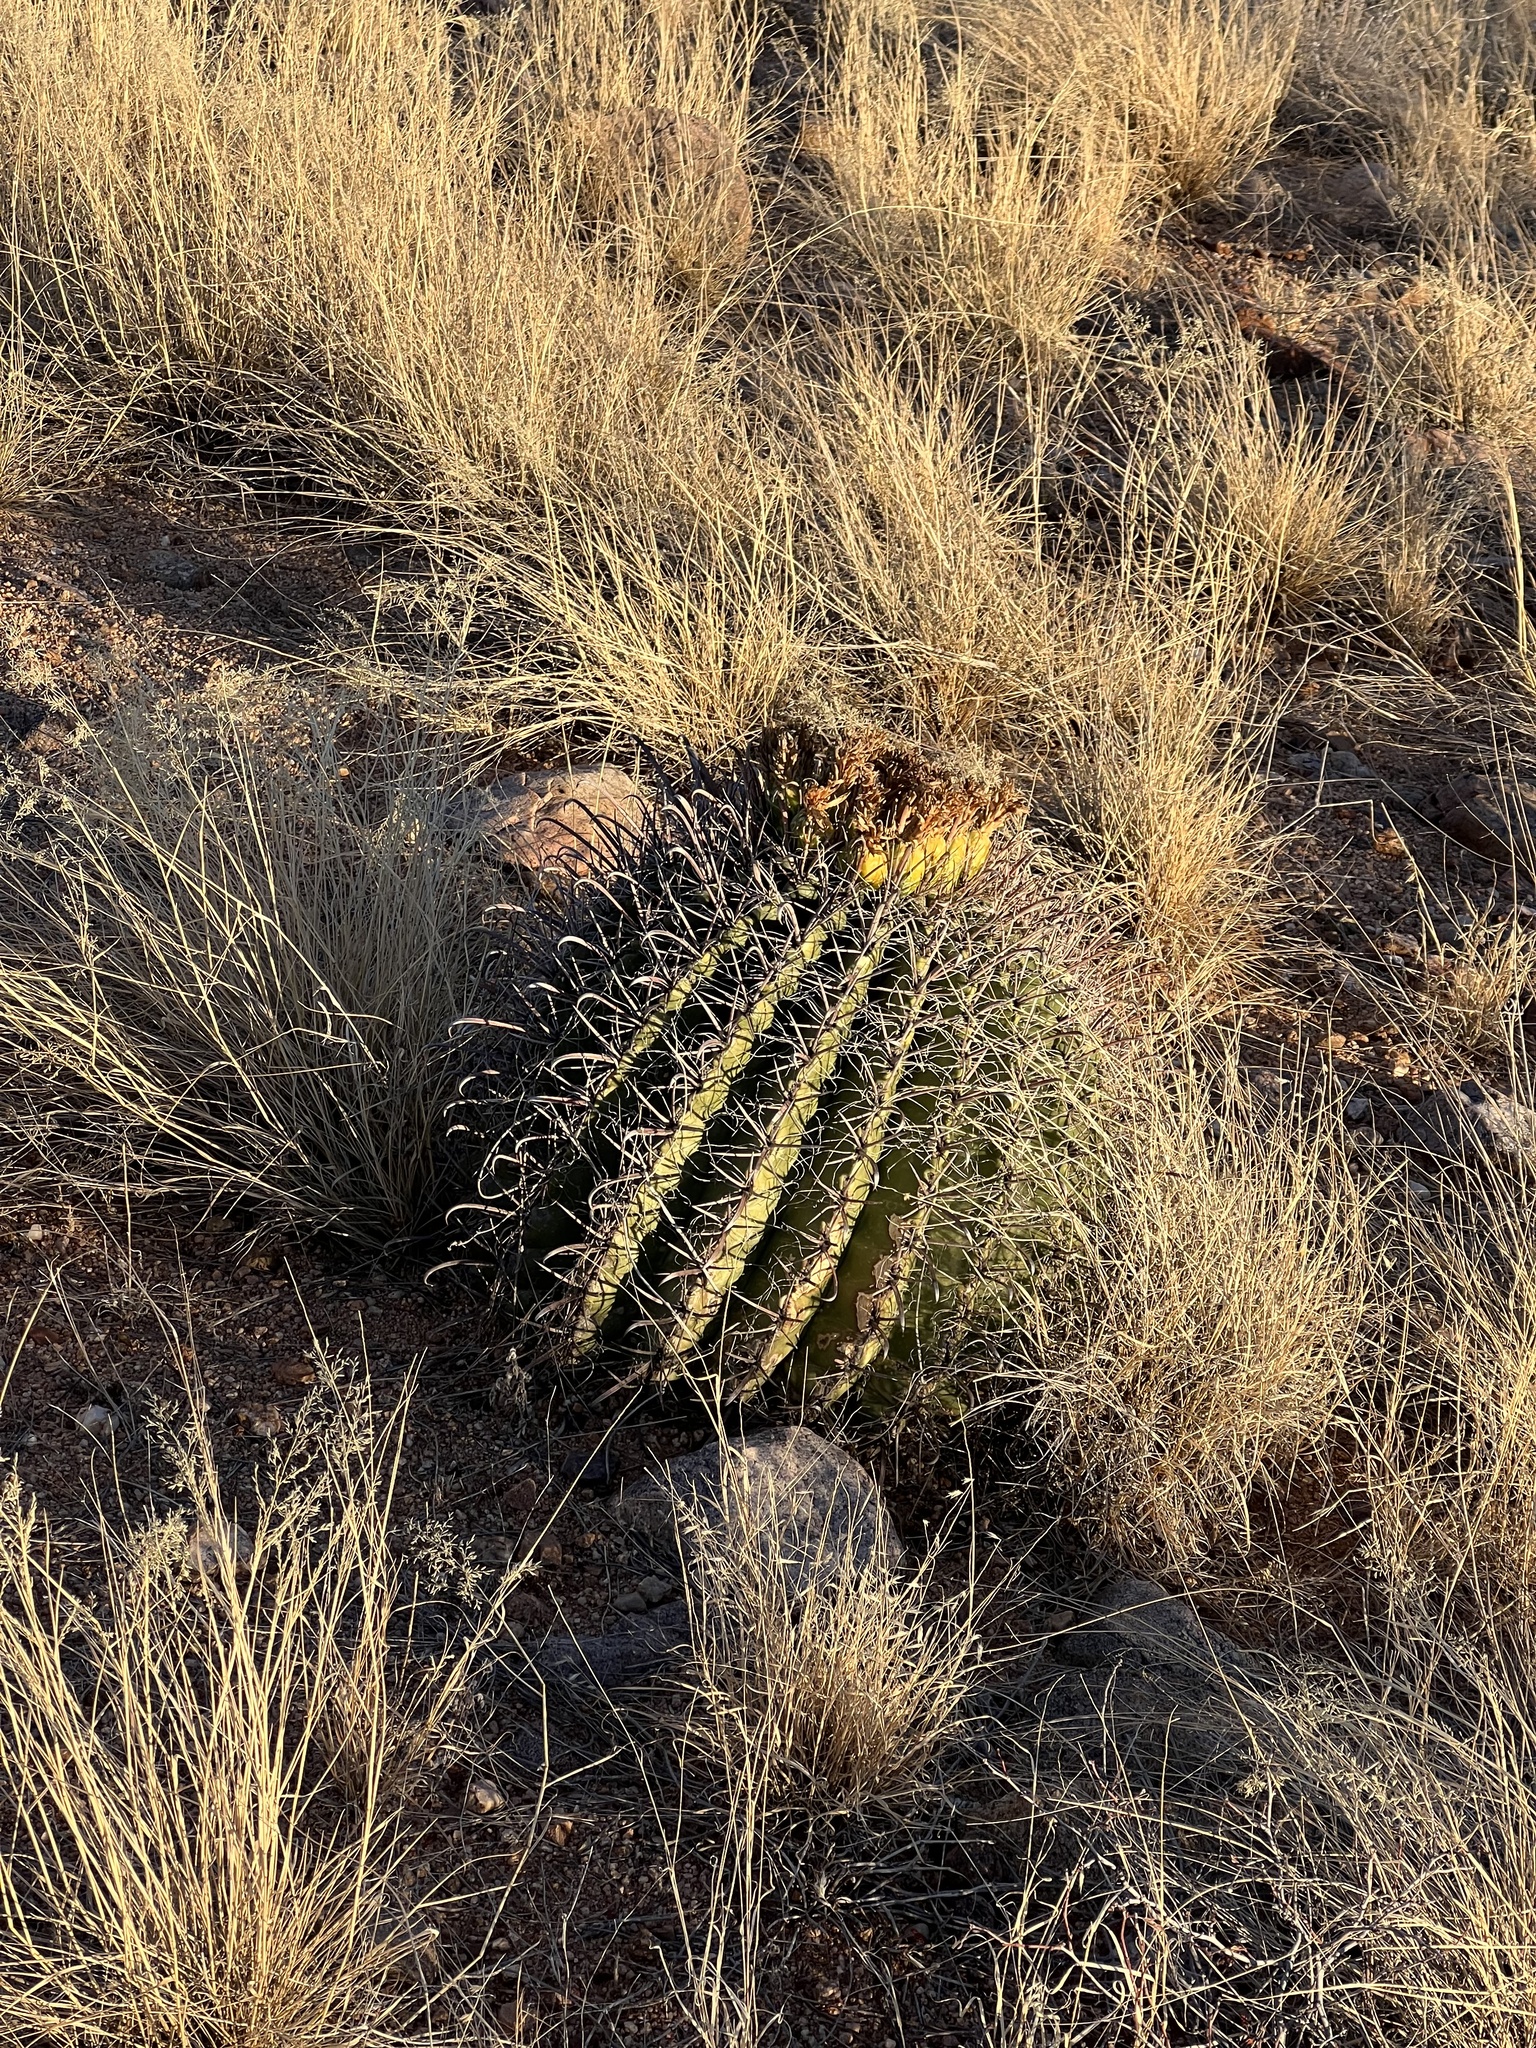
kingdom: Plantae
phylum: Tracheophyta
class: Magnoliopsida
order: Caryophyllales
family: Cactaceae
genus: Ferocactus
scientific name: Ferocactus wislizeni
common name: Candy barrel cactus
